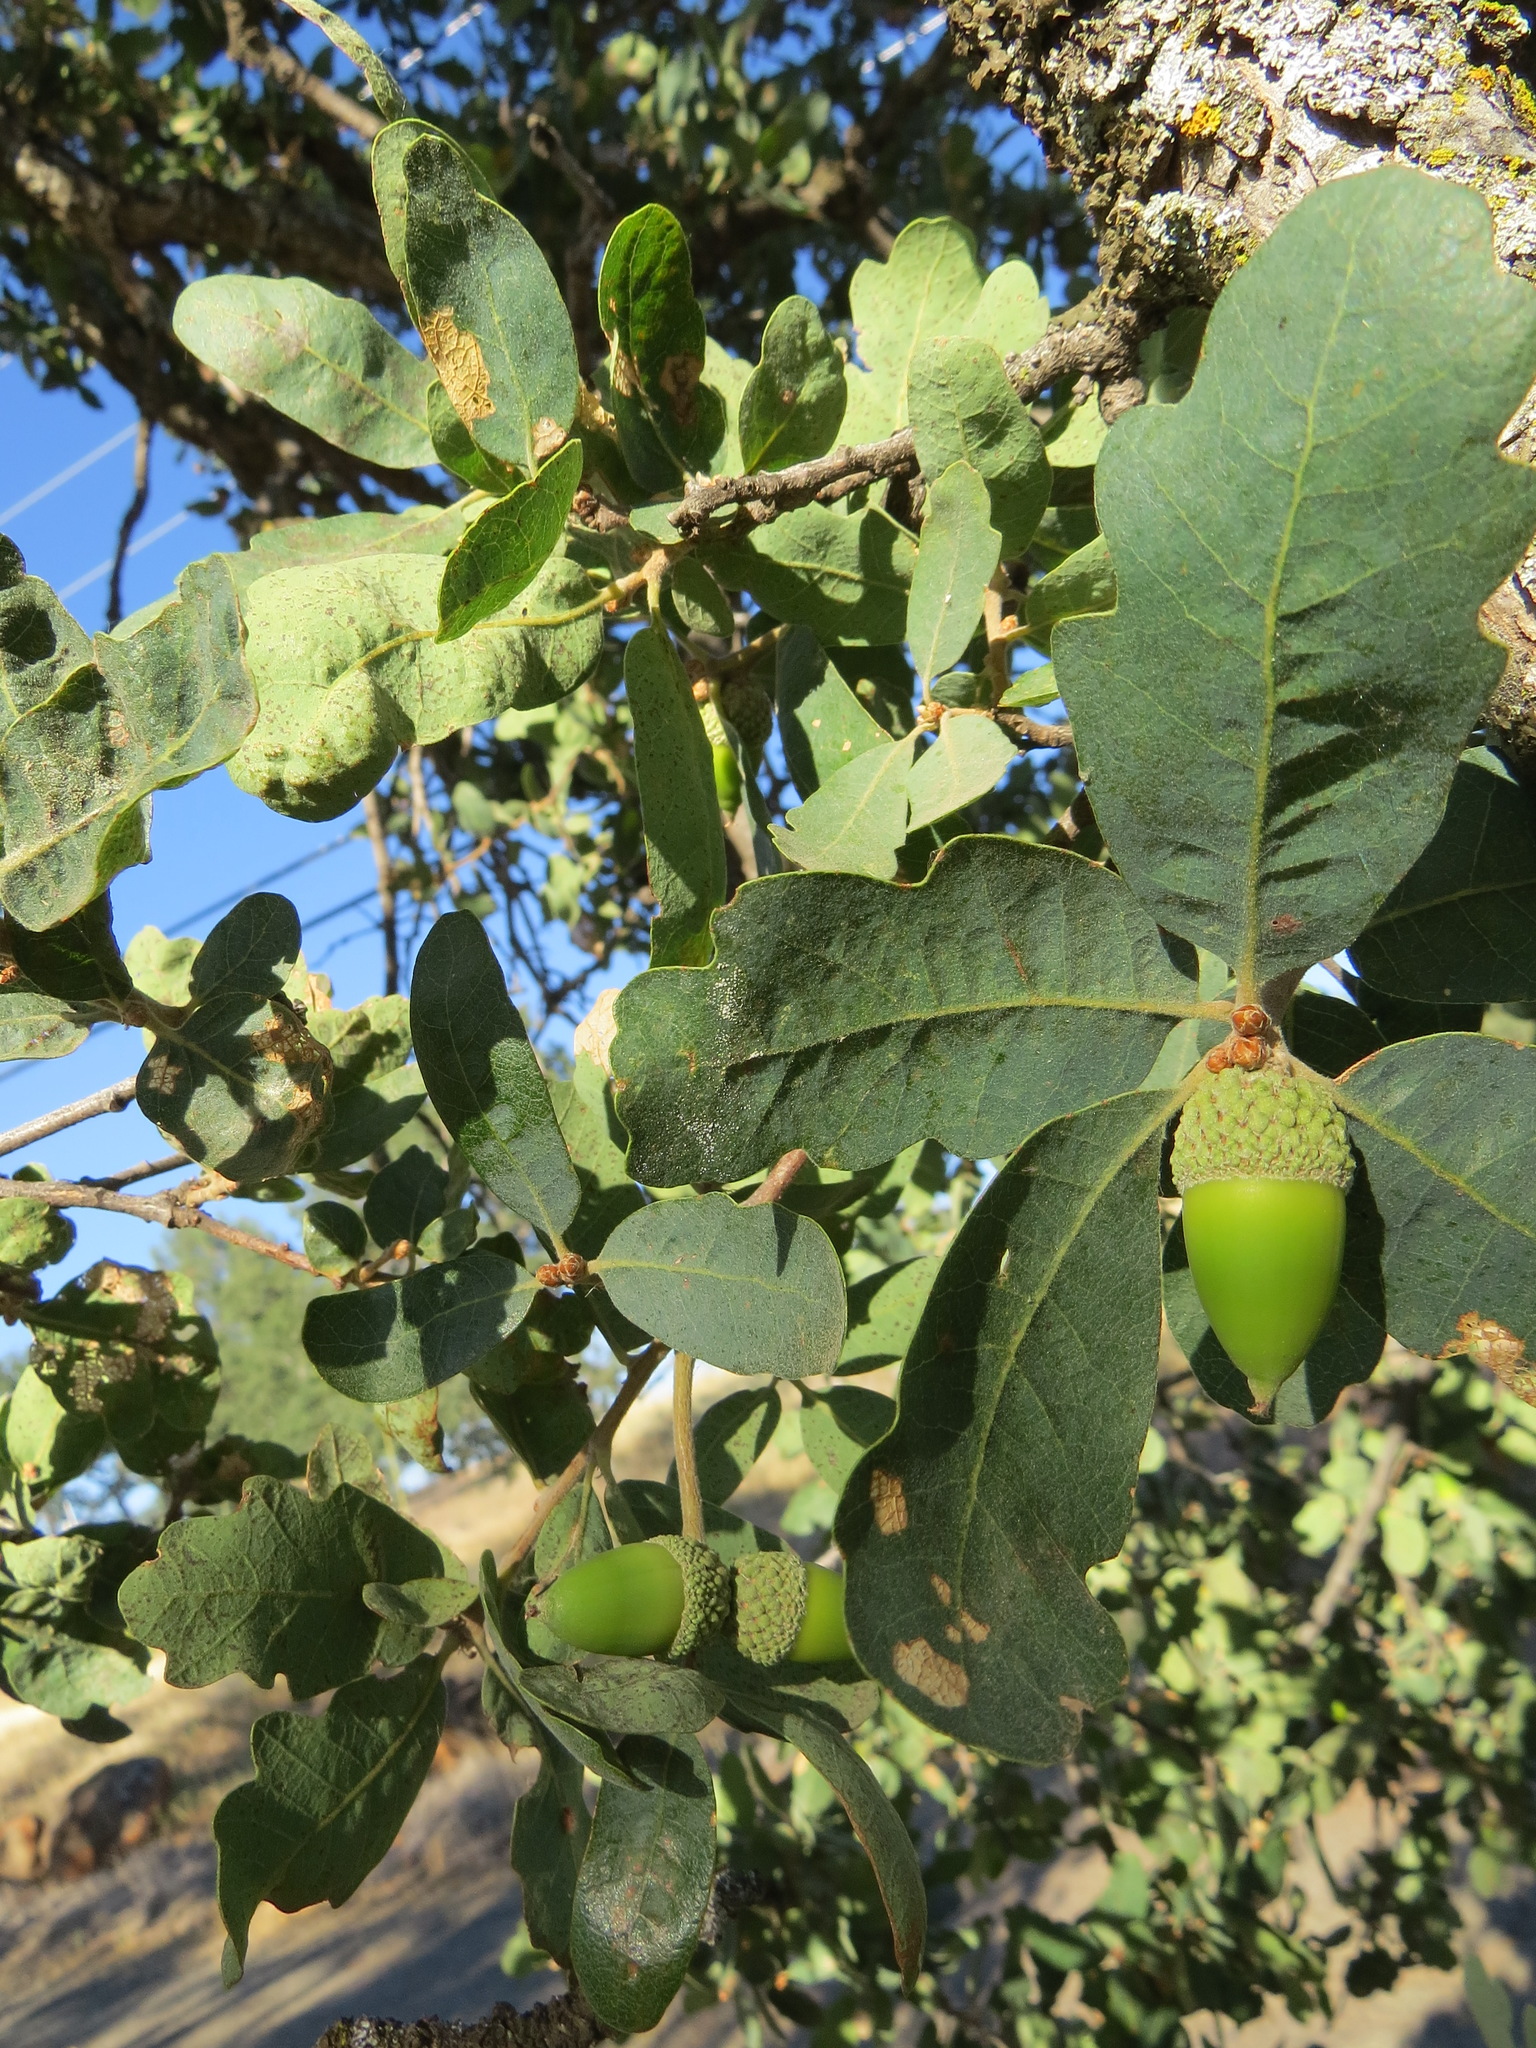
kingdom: Plantae
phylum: Tracheophyta
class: Magnoliopsida
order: Fagales
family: Fagaceae
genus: Quercus
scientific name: Quercus douglasii
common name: Blue oak
